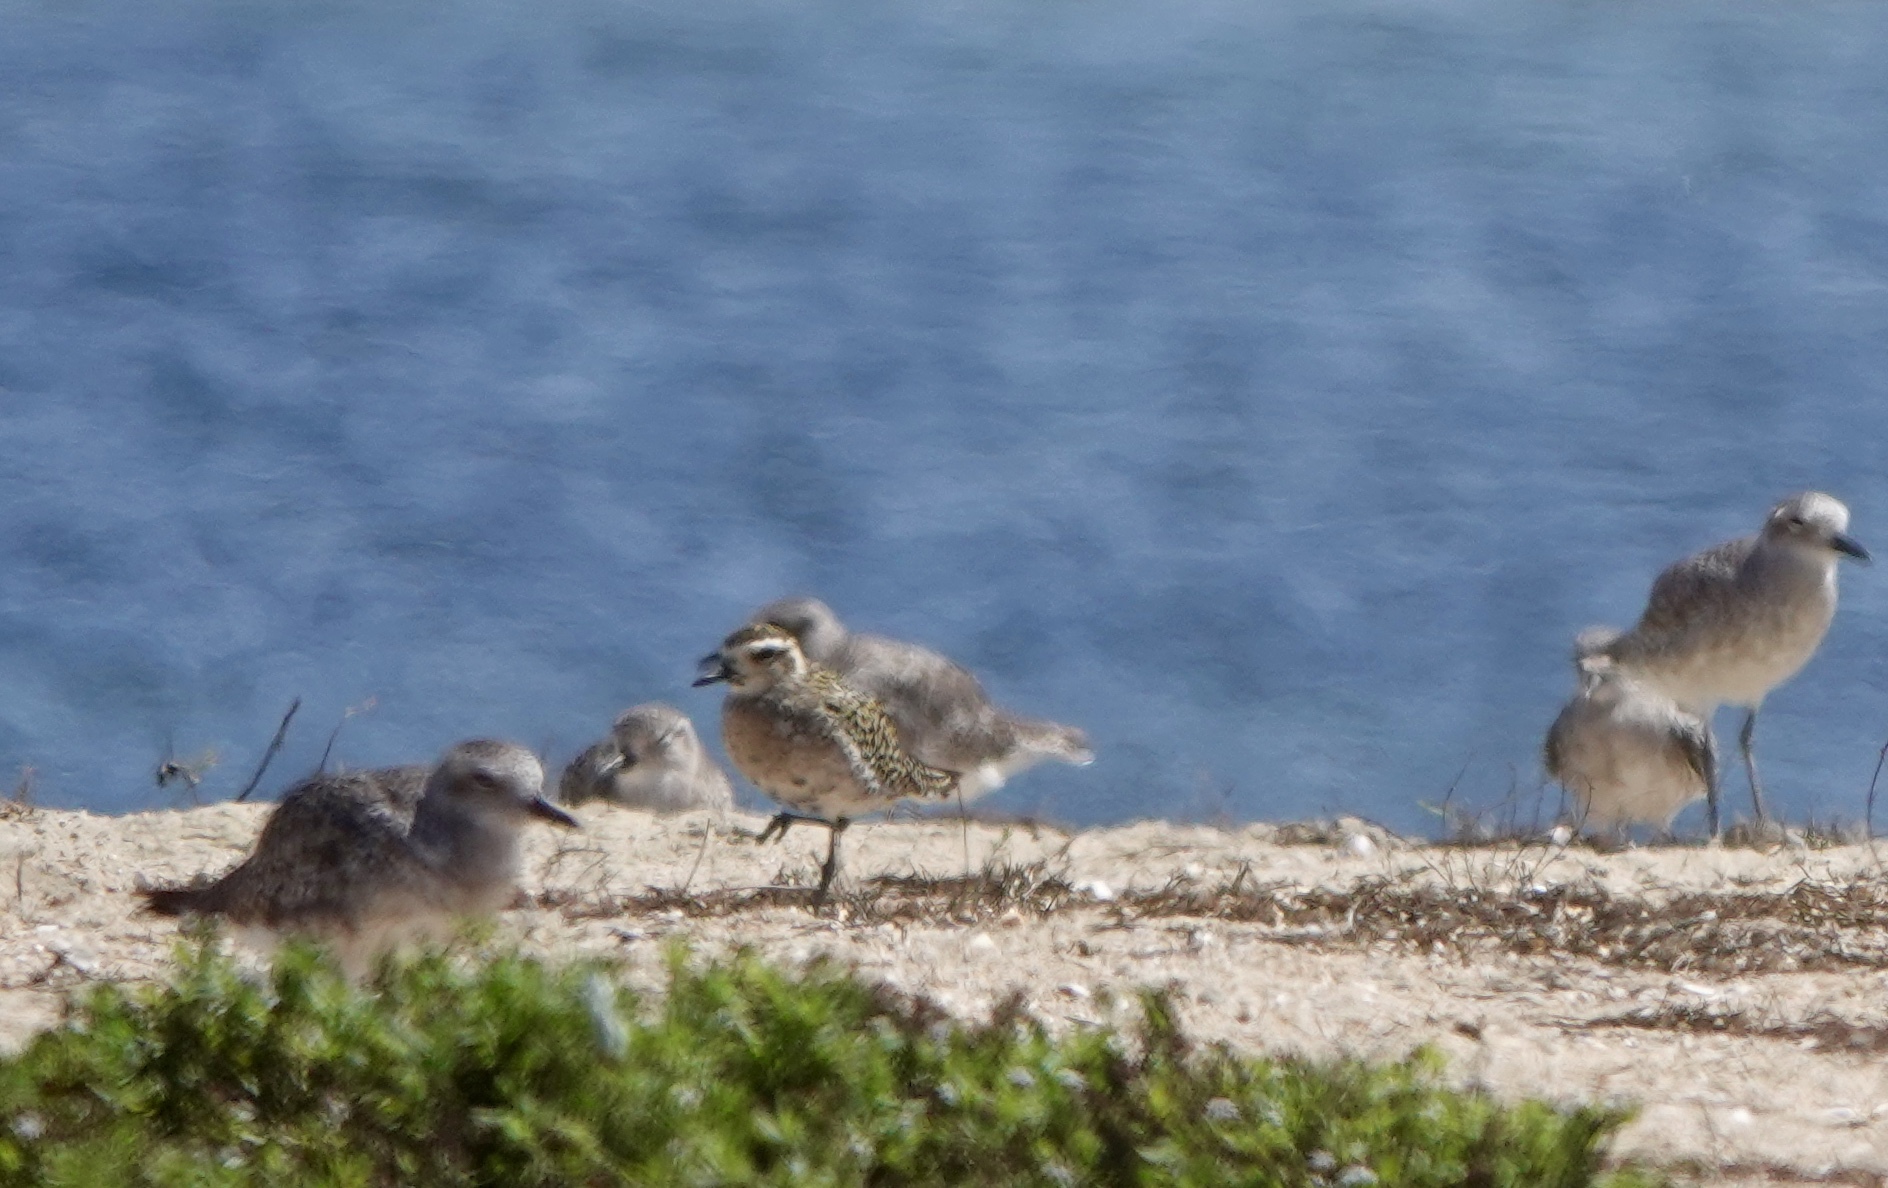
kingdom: Animalia
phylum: Chordata
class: Aves
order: Charadriiformes
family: Charadriidae
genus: Pluvialis
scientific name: Pluvialis fulva
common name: Pacific golden plover
